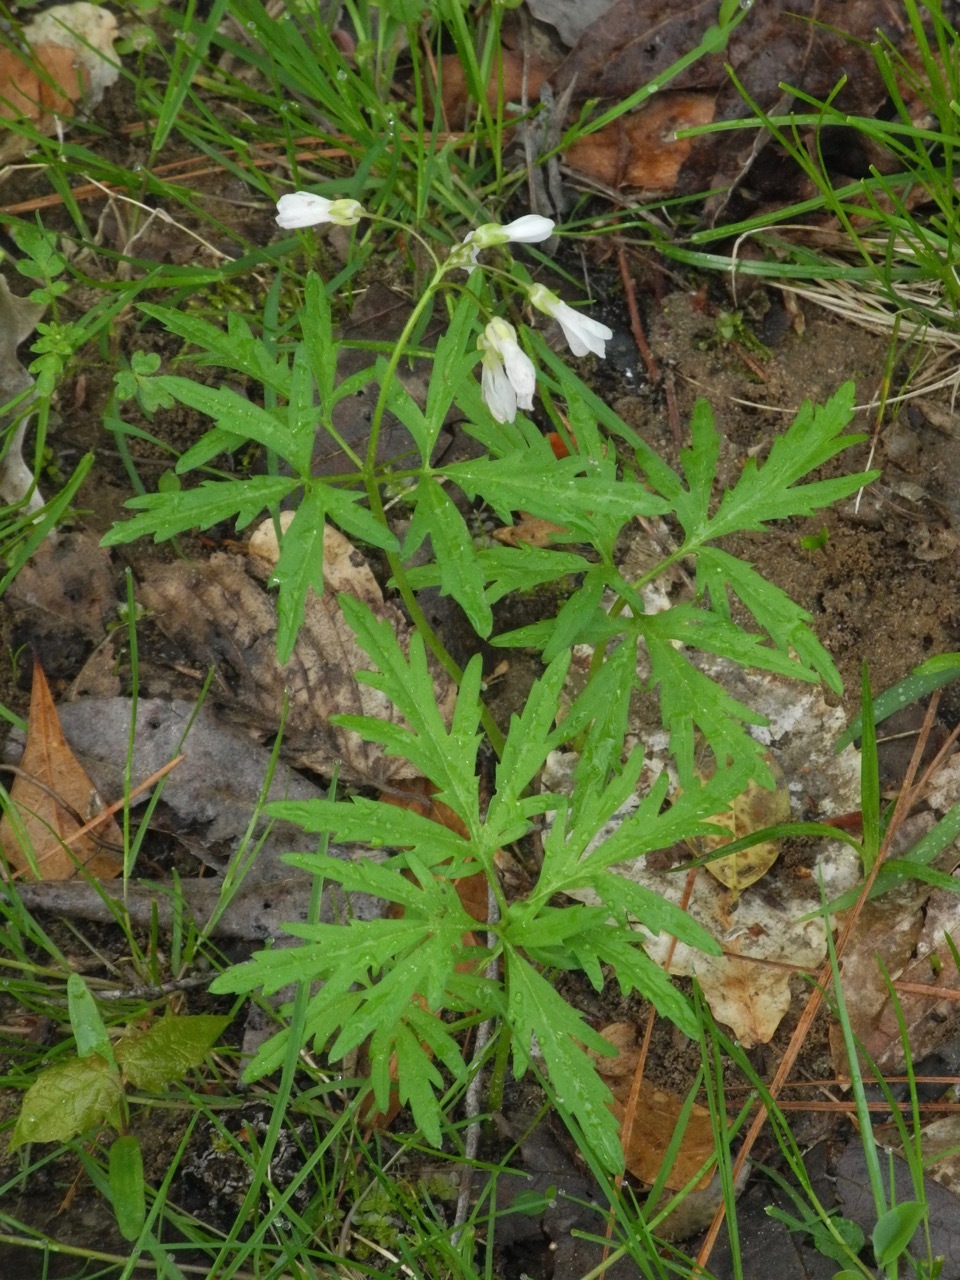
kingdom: Plantae
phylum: Tracheophyta
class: Magnoliopsida
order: Brassicales
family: Brassicaceae
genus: Cardamine
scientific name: Cardamine concatenata
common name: Cut-leaf toothcup
